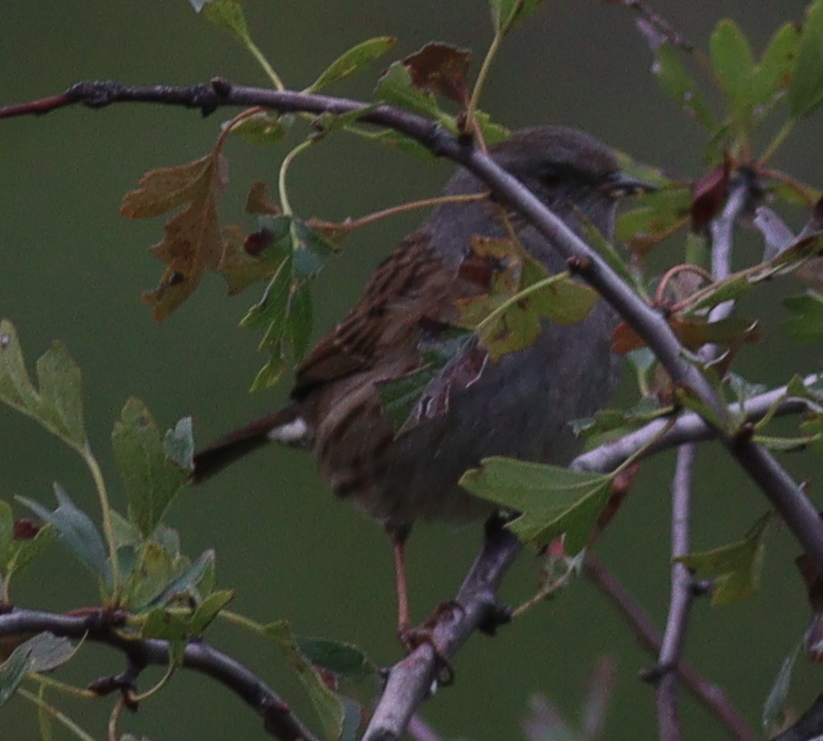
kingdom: Animalia
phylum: Chordata
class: Aves
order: Passeriformes
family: Prunellidae
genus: Prunella
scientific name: Prunella modularis
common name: Dunnock
